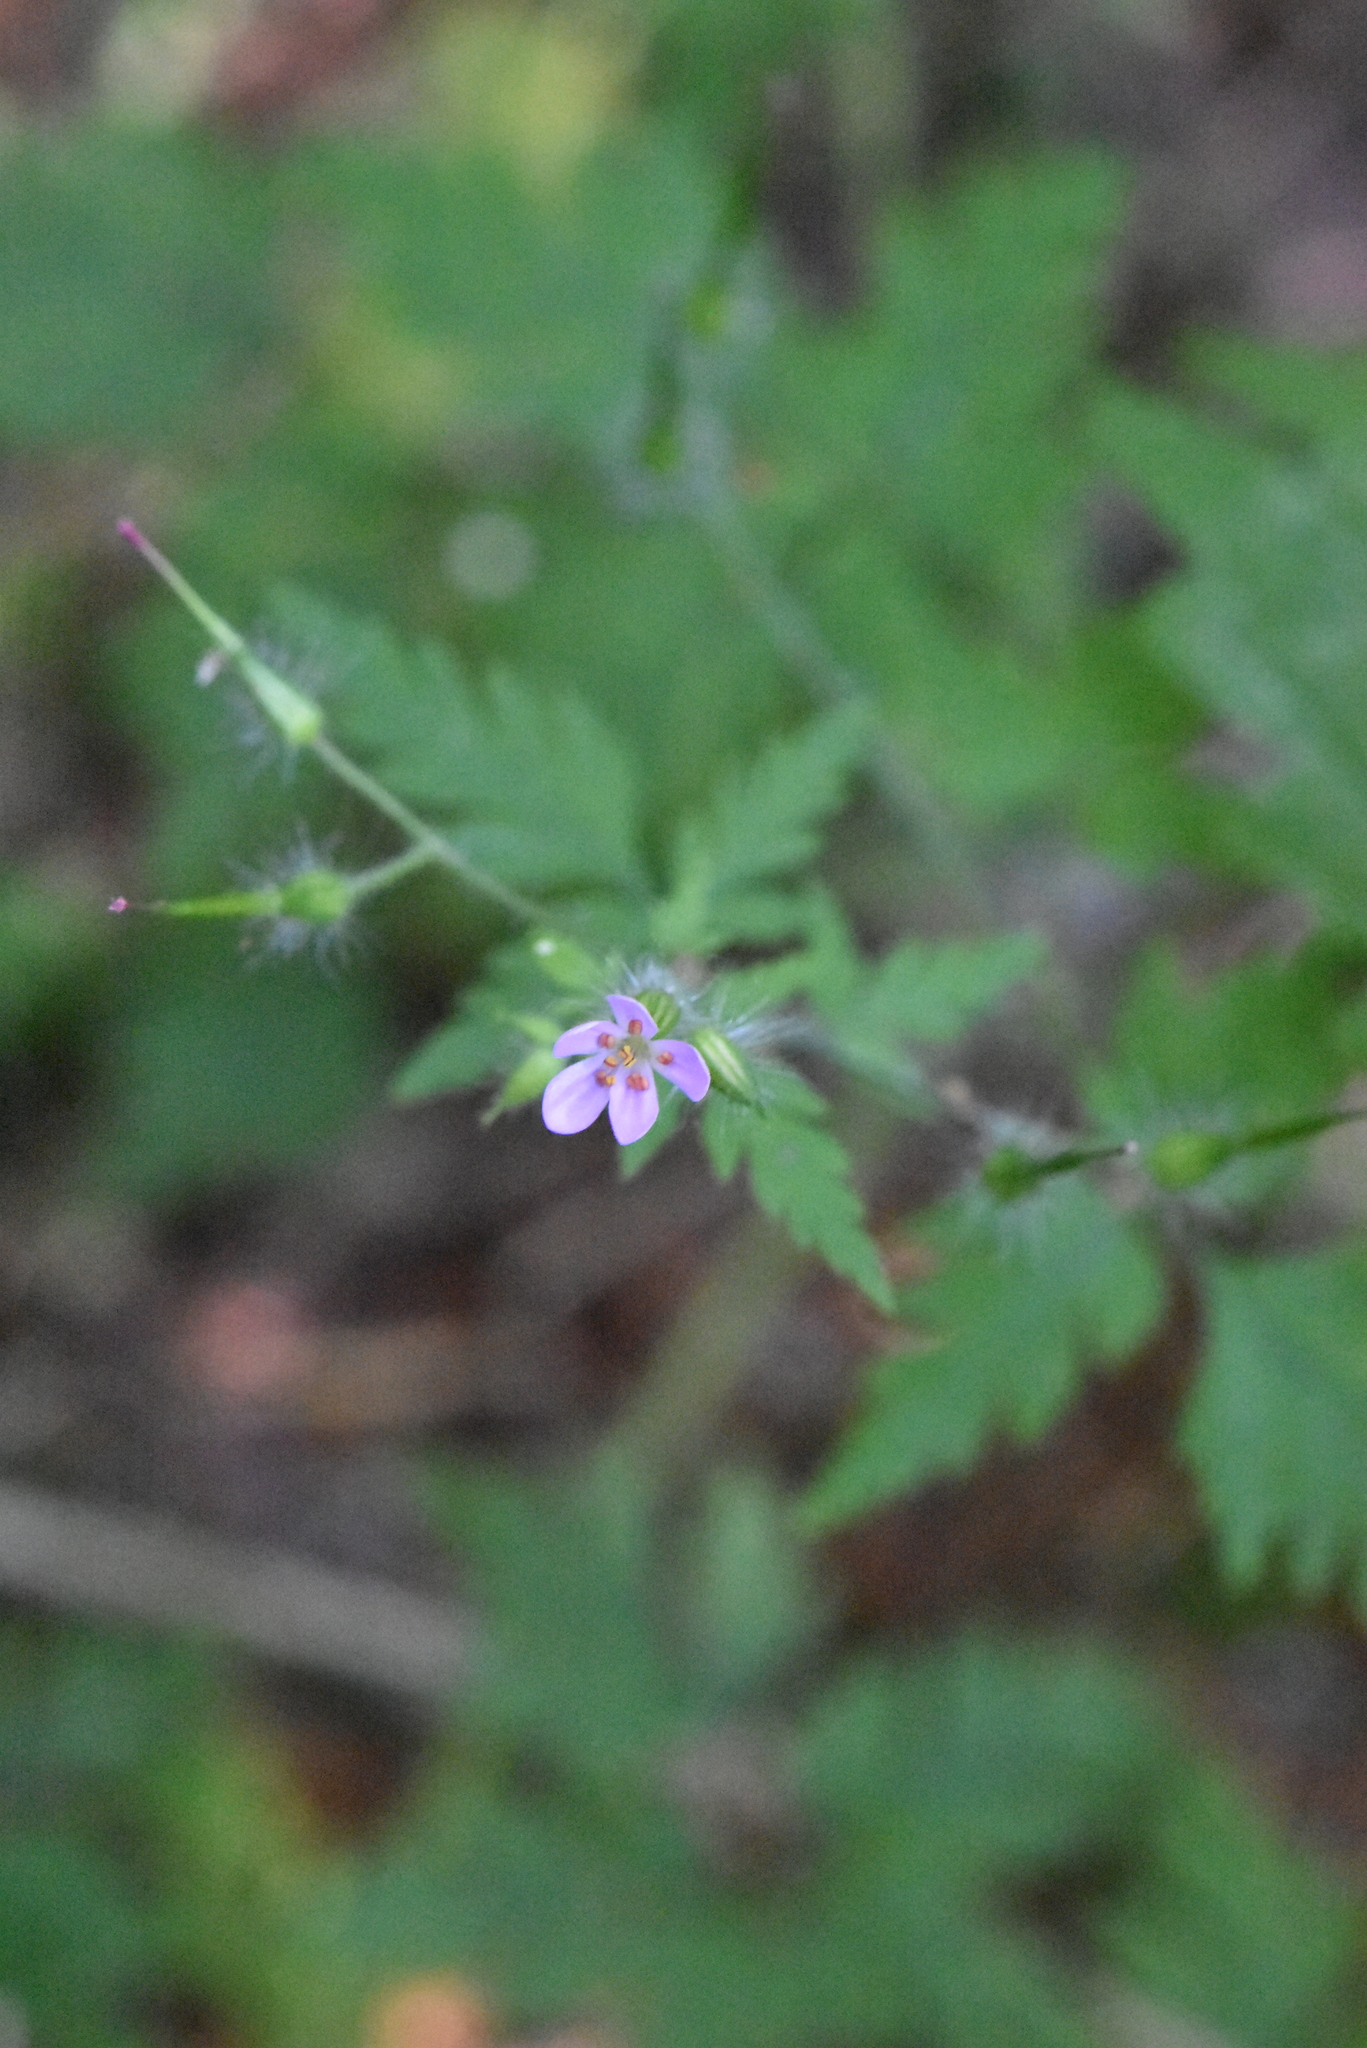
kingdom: Plantae
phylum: Tracheophyta
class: Magnoliopsida
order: Geraniales
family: Geraniaceae
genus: Geranium
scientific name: Geranium robertianum
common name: Herb-robert
